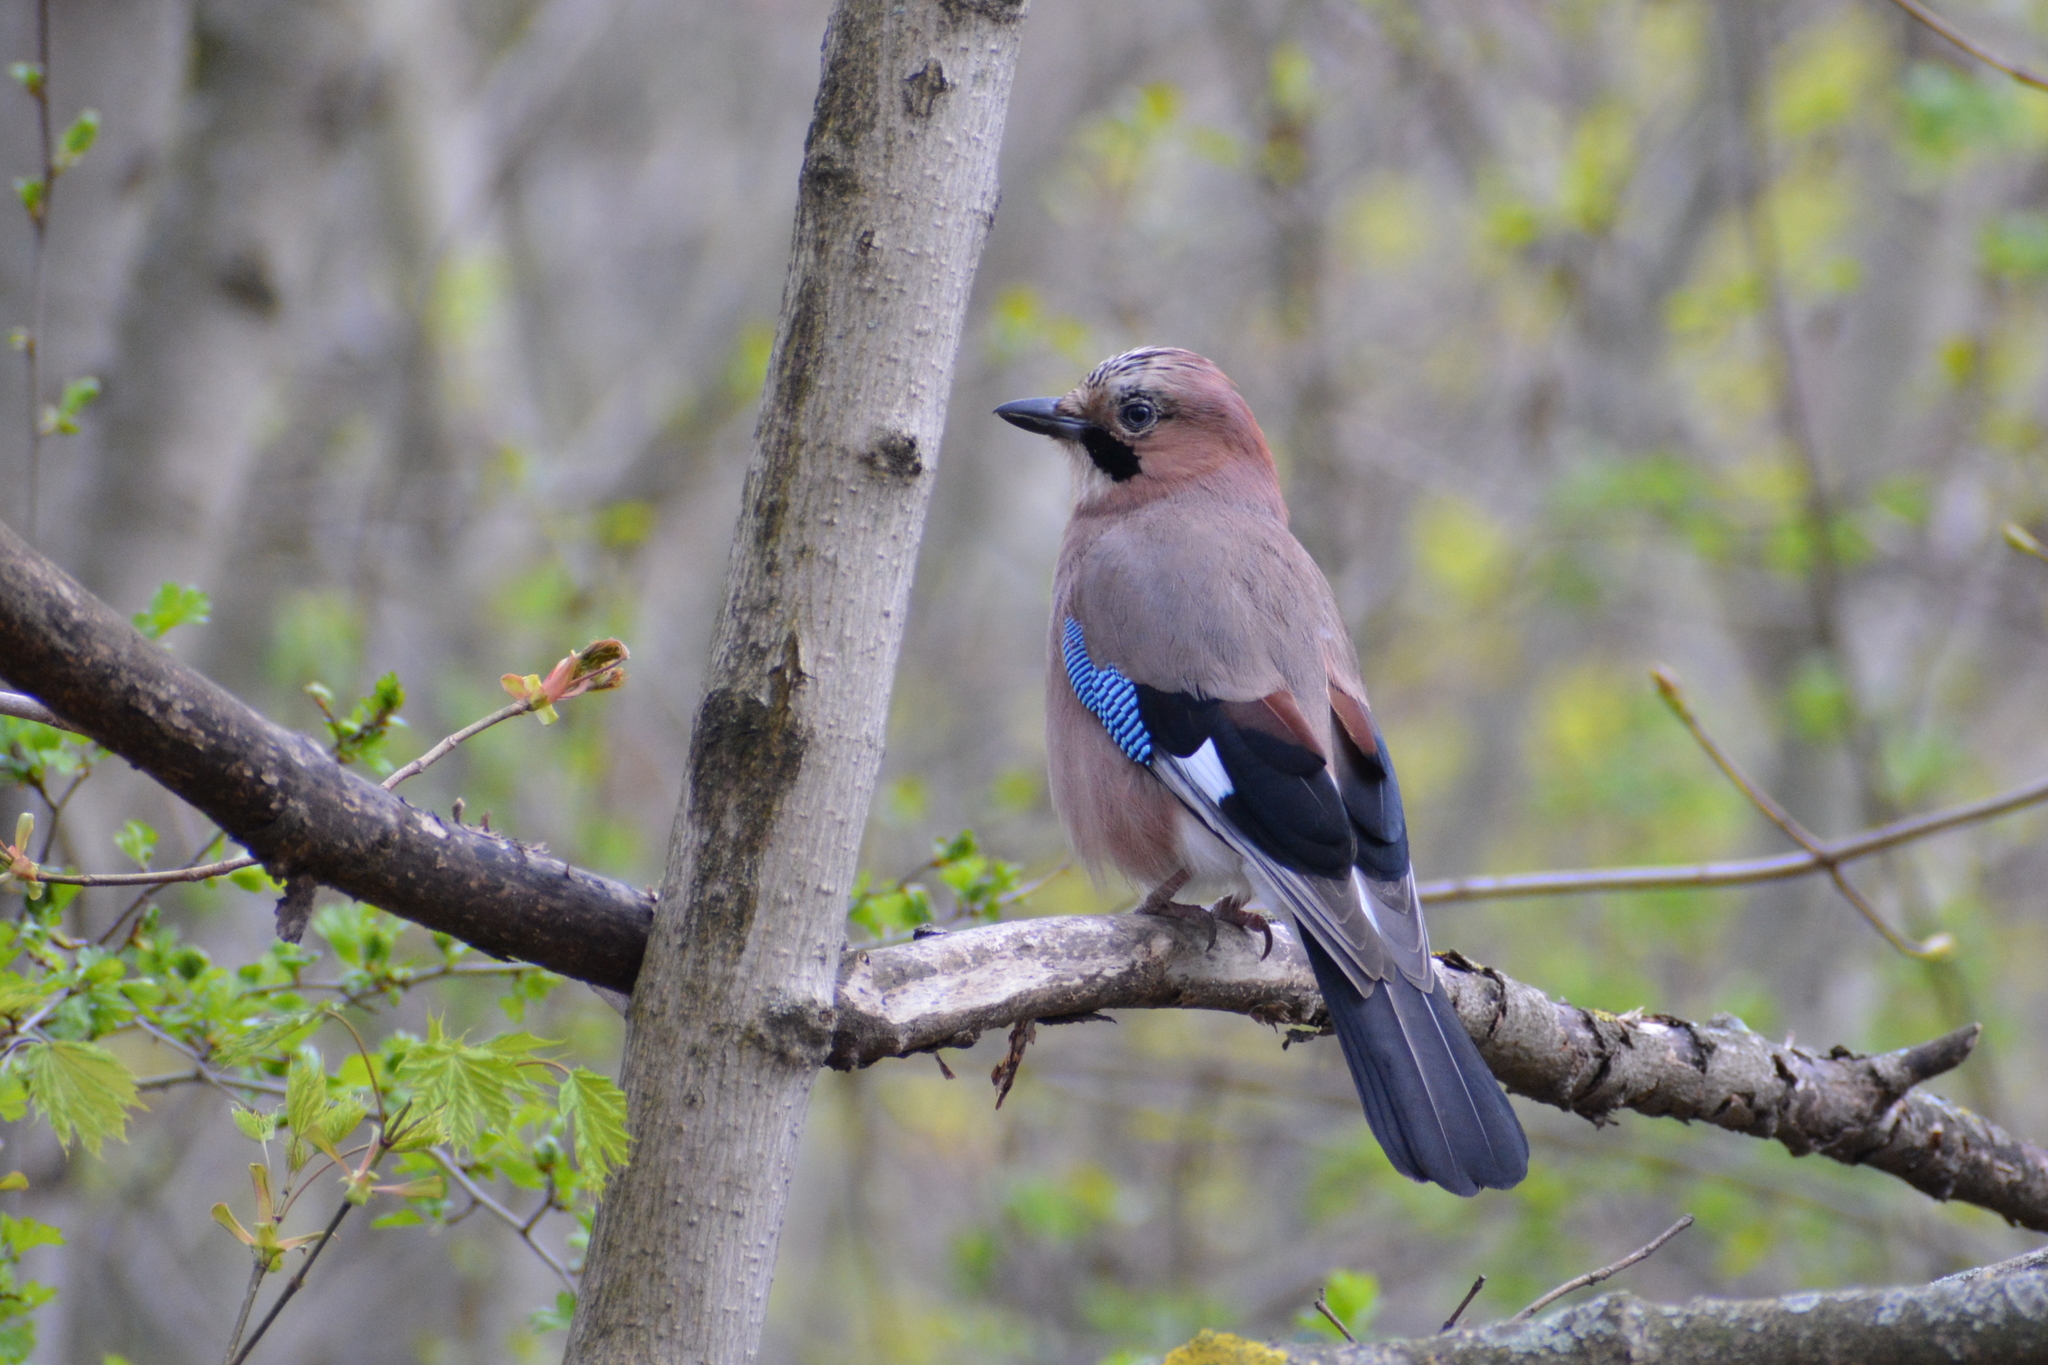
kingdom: Animalia
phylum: Chordata
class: Aves
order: Passeriformes
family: Corvidae
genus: Garrulus
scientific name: Garrulus glandarius
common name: Eurasian jay
